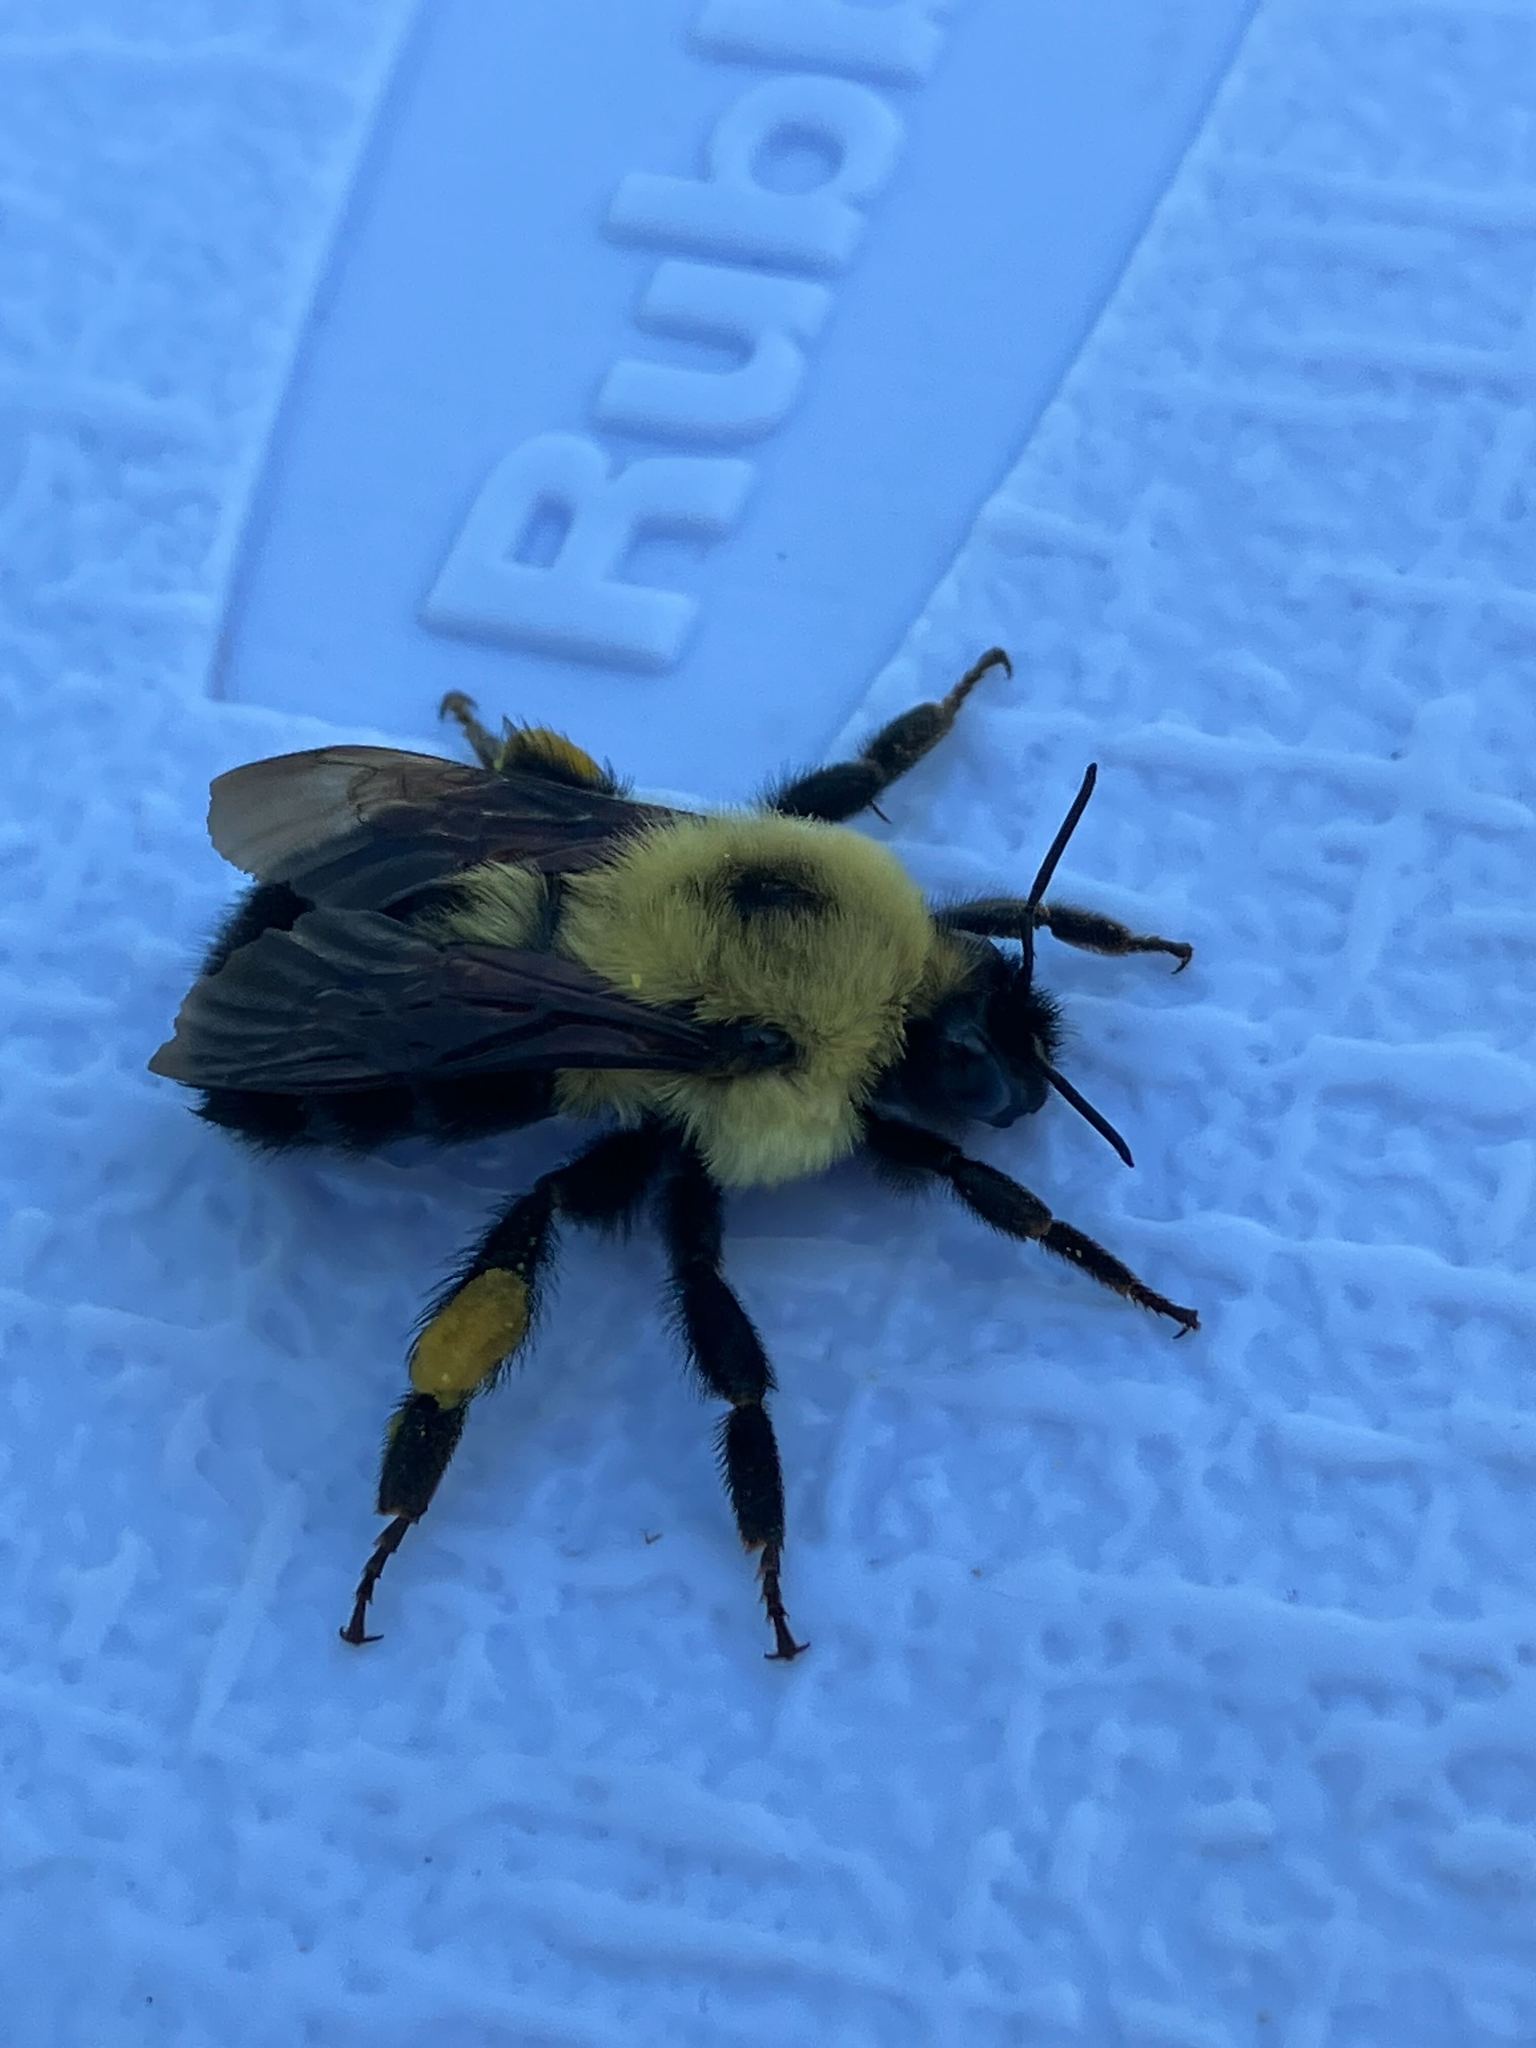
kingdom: Animalia
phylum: Arthropoda
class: Insecta
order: Hymenoptera
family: Apidae
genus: Bombus
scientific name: Bombus bimaculatus
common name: Two-spotted bumble bee
